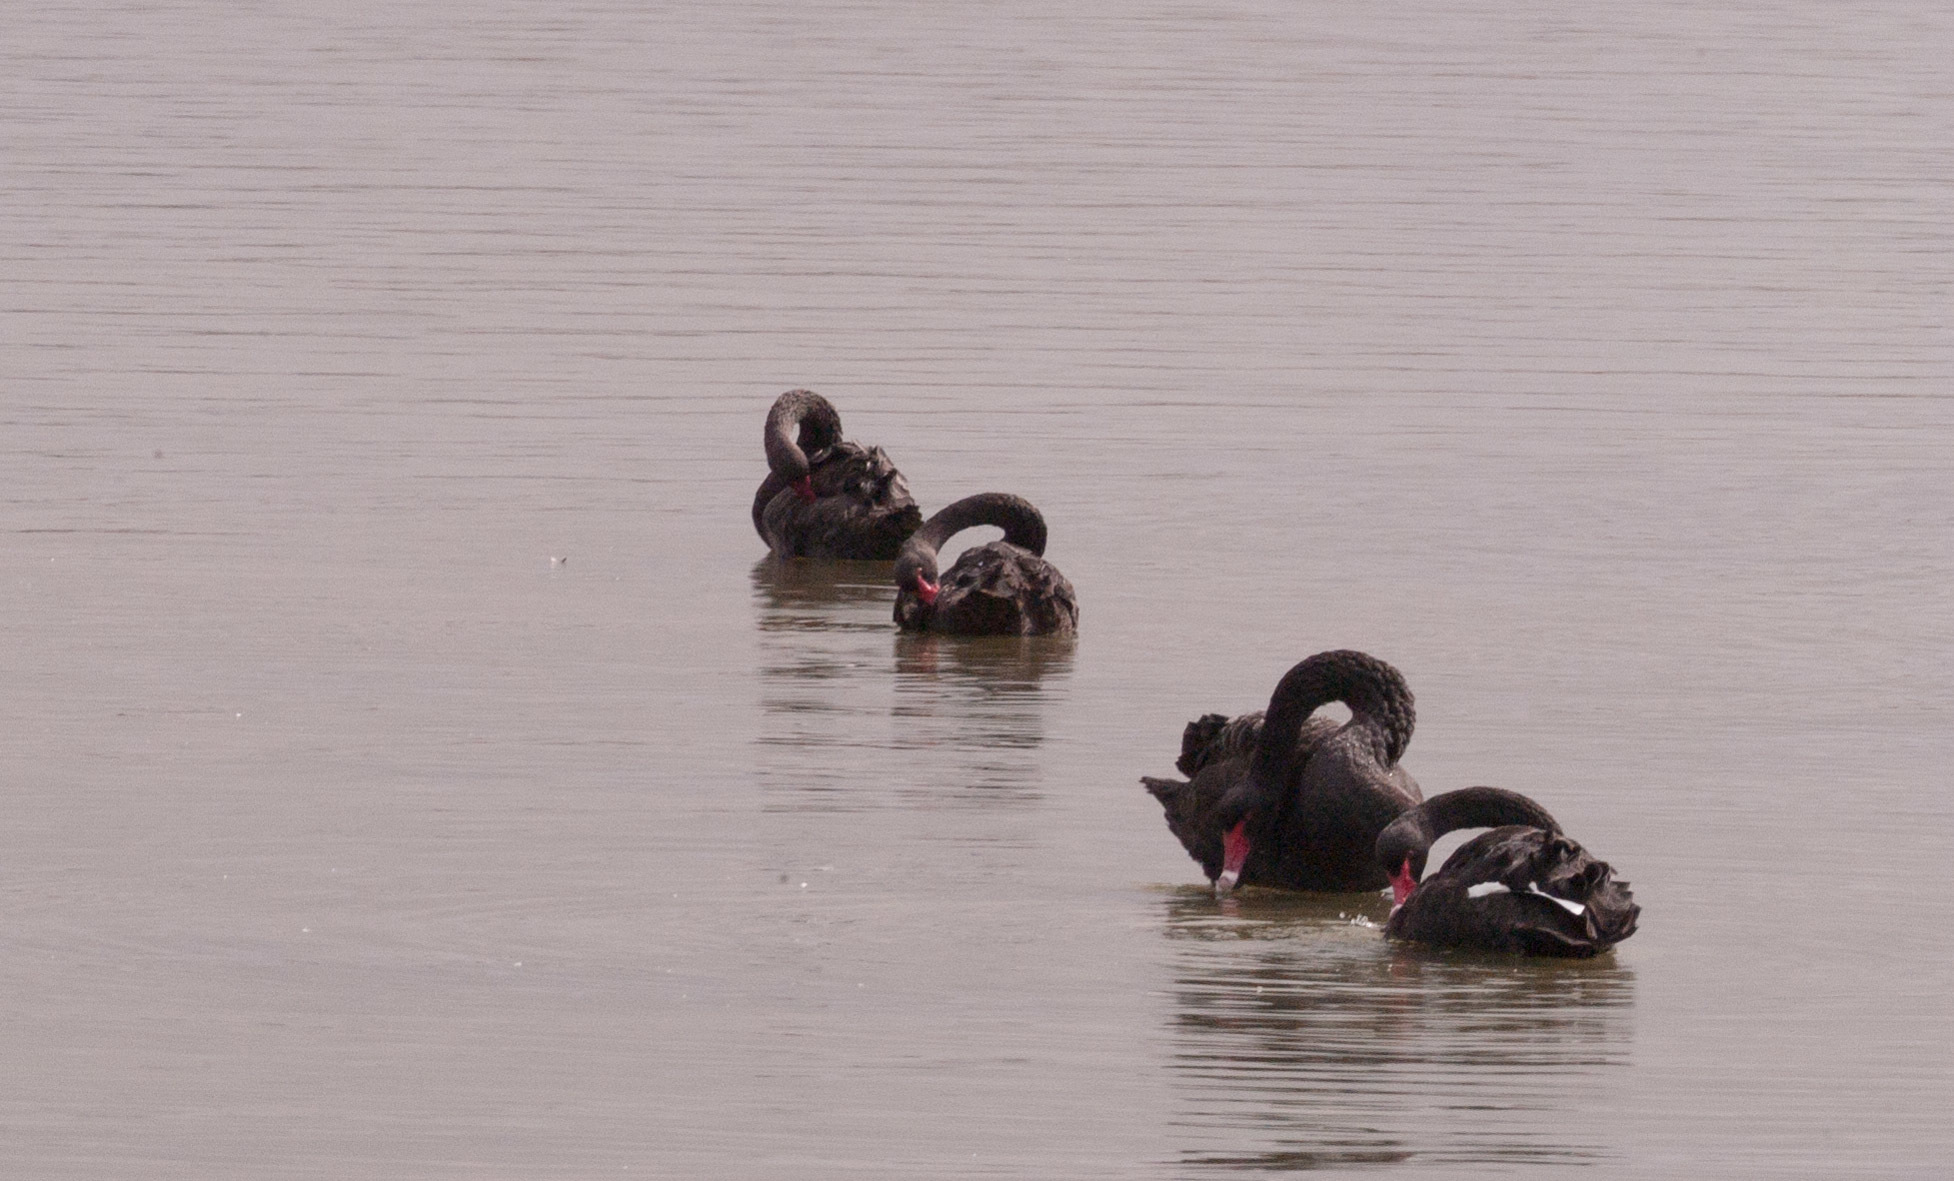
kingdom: Animalia
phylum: Chordata
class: Aves
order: Anseriformes
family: Anatidae
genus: Cygnus
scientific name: Cygnus atratus
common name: Black swan
